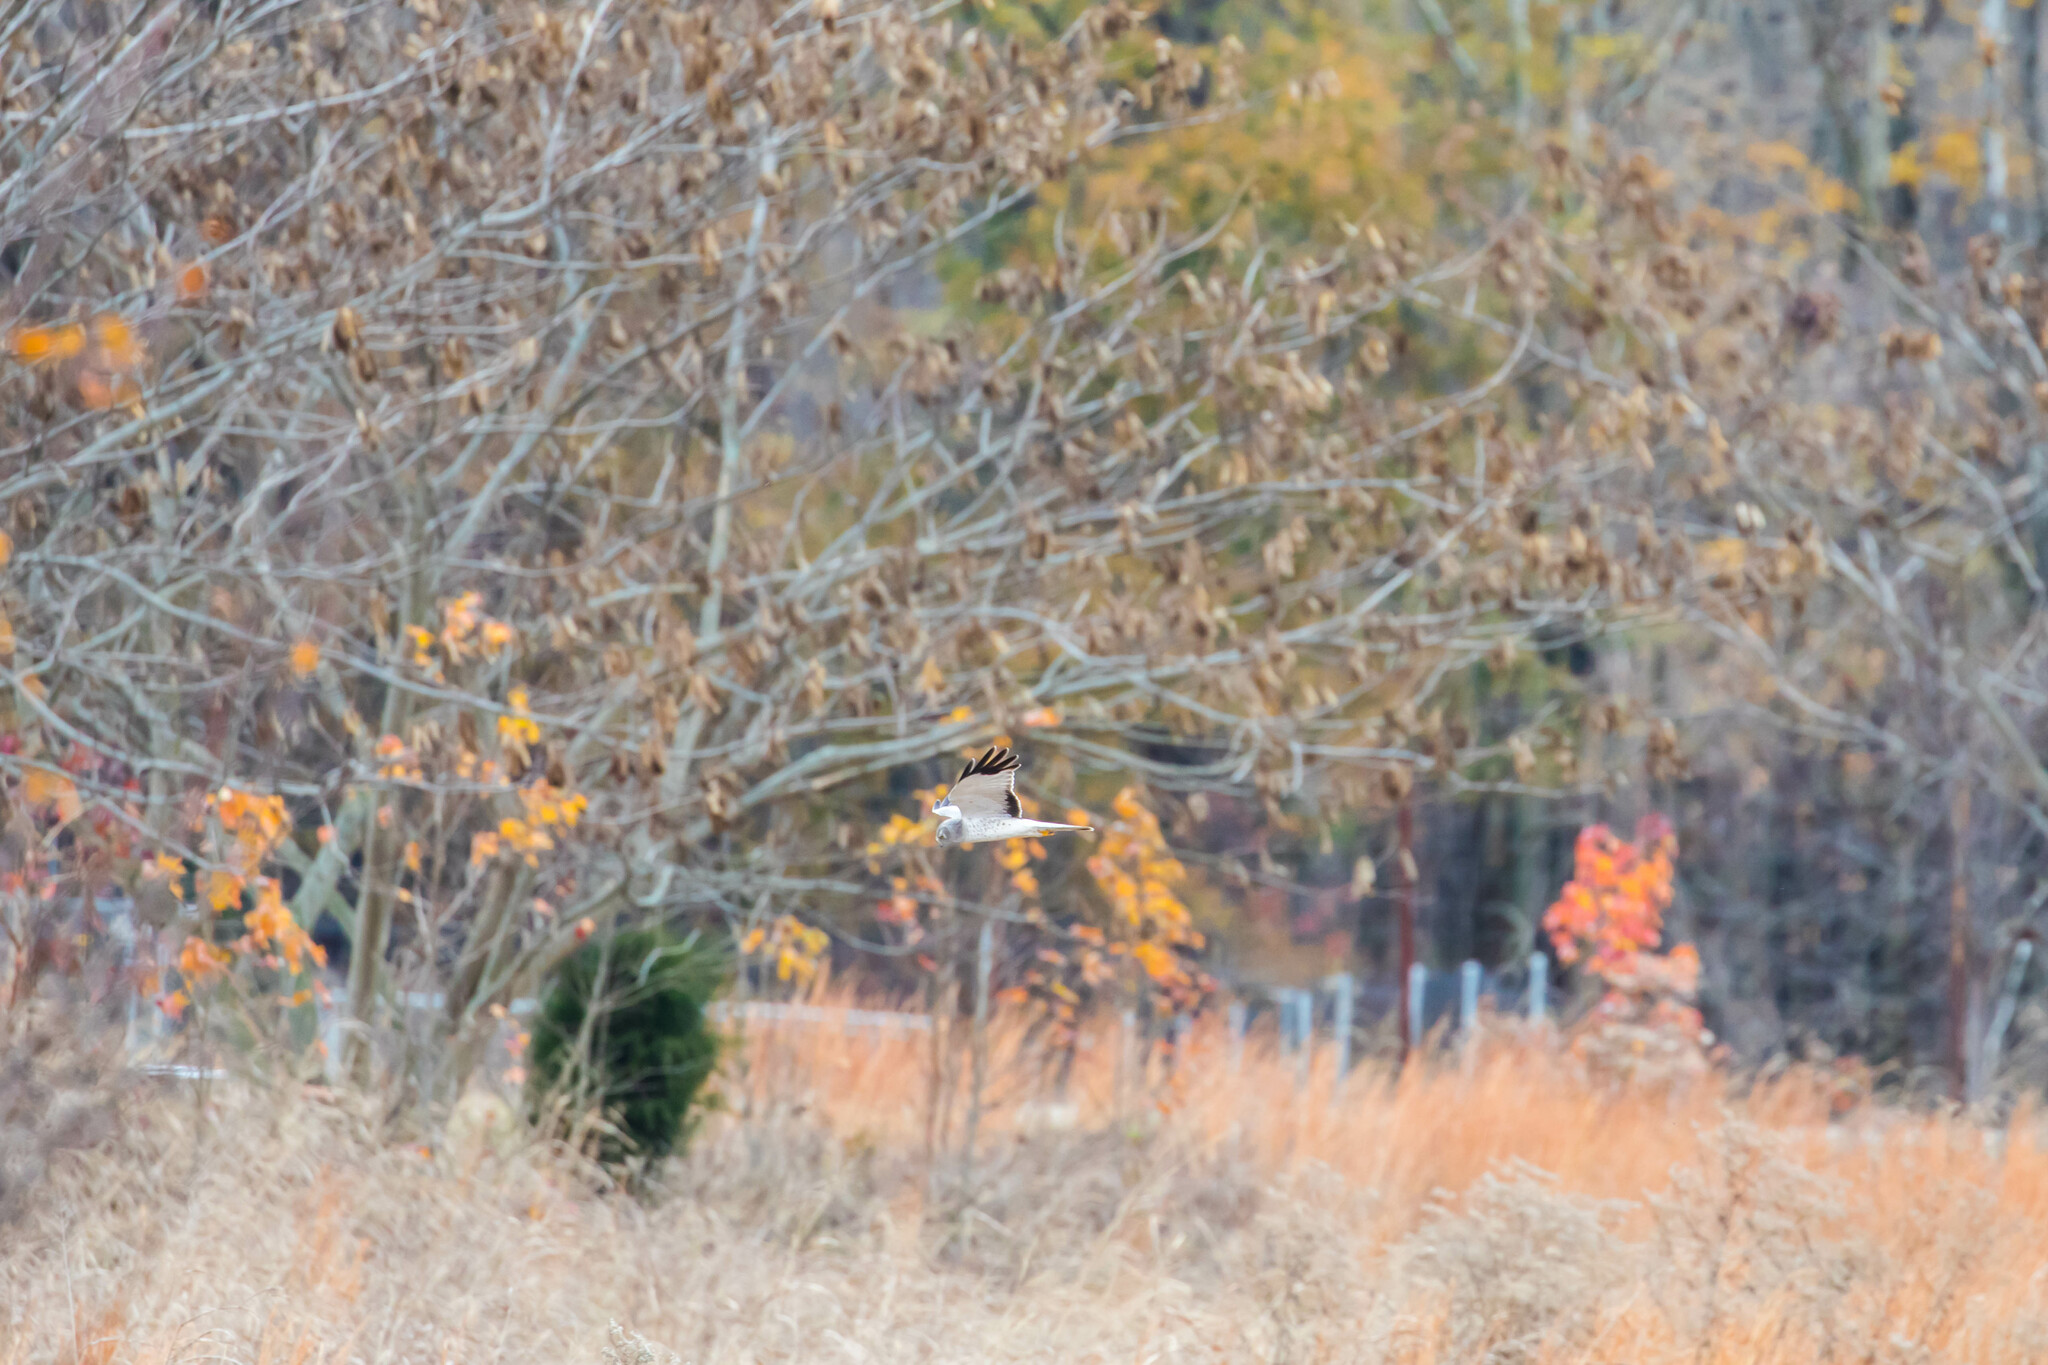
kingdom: Animalia
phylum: Chordata
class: Aves
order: Accipitriformes
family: Accipitridae
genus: Circus
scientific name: Circus cyaneus
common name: Hen harrier
